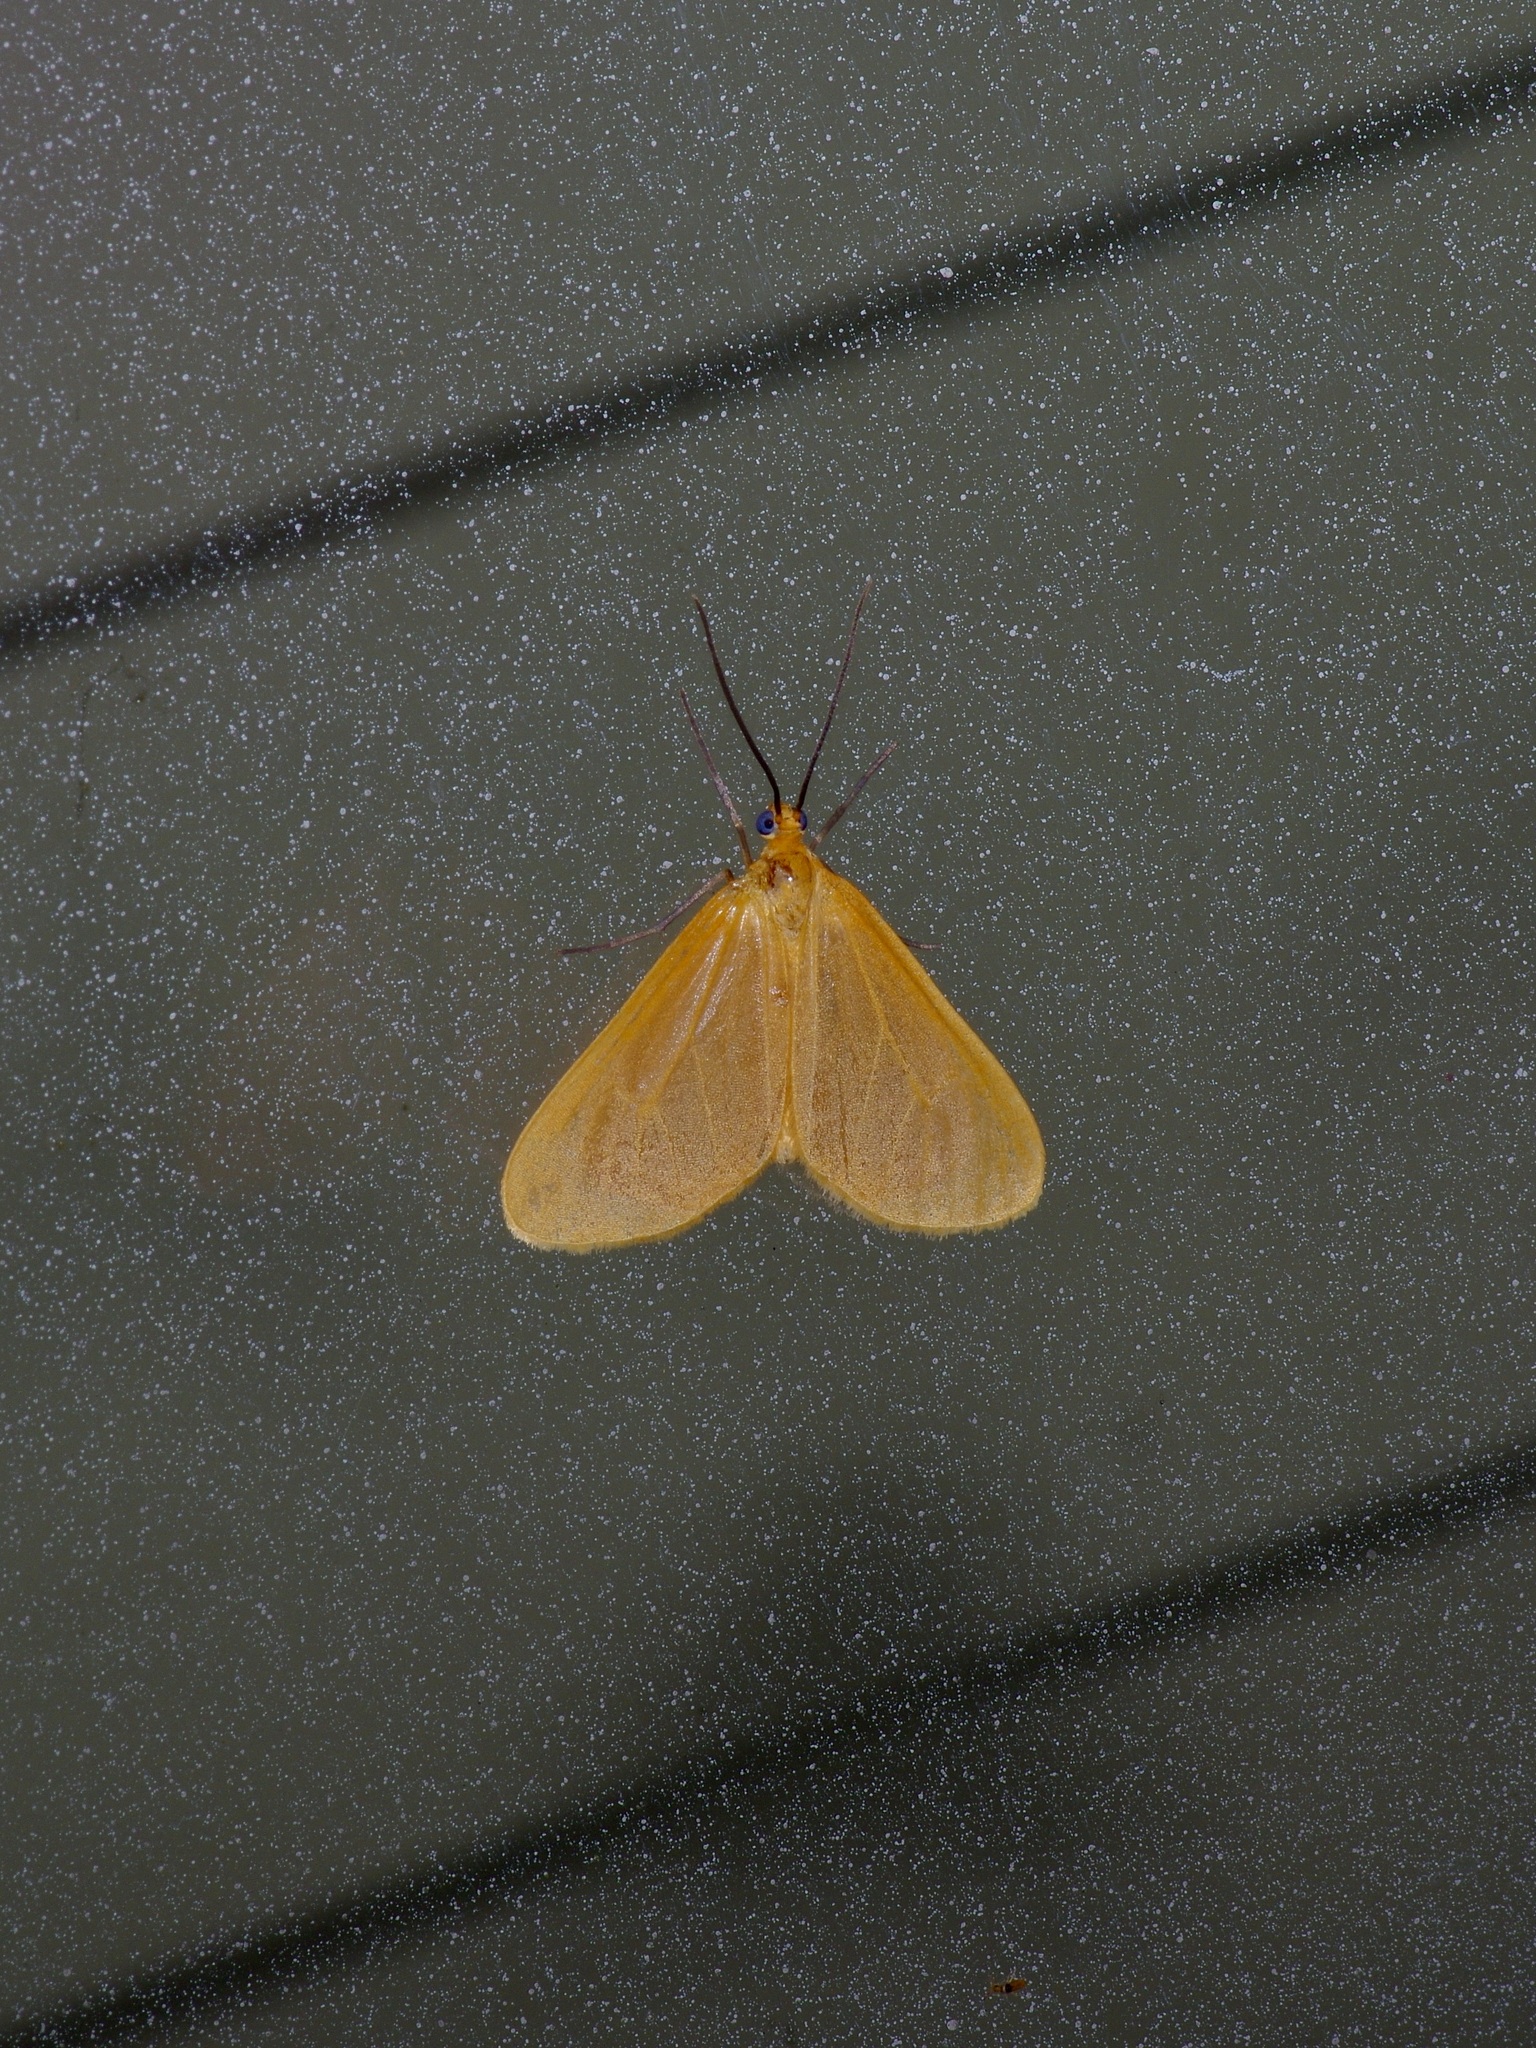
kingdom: Animalia
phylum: Arthropoda
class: Insecta
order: Lepidoptera
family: Geometridae
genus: Eubaphe
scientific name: Eubaphe unicolor
